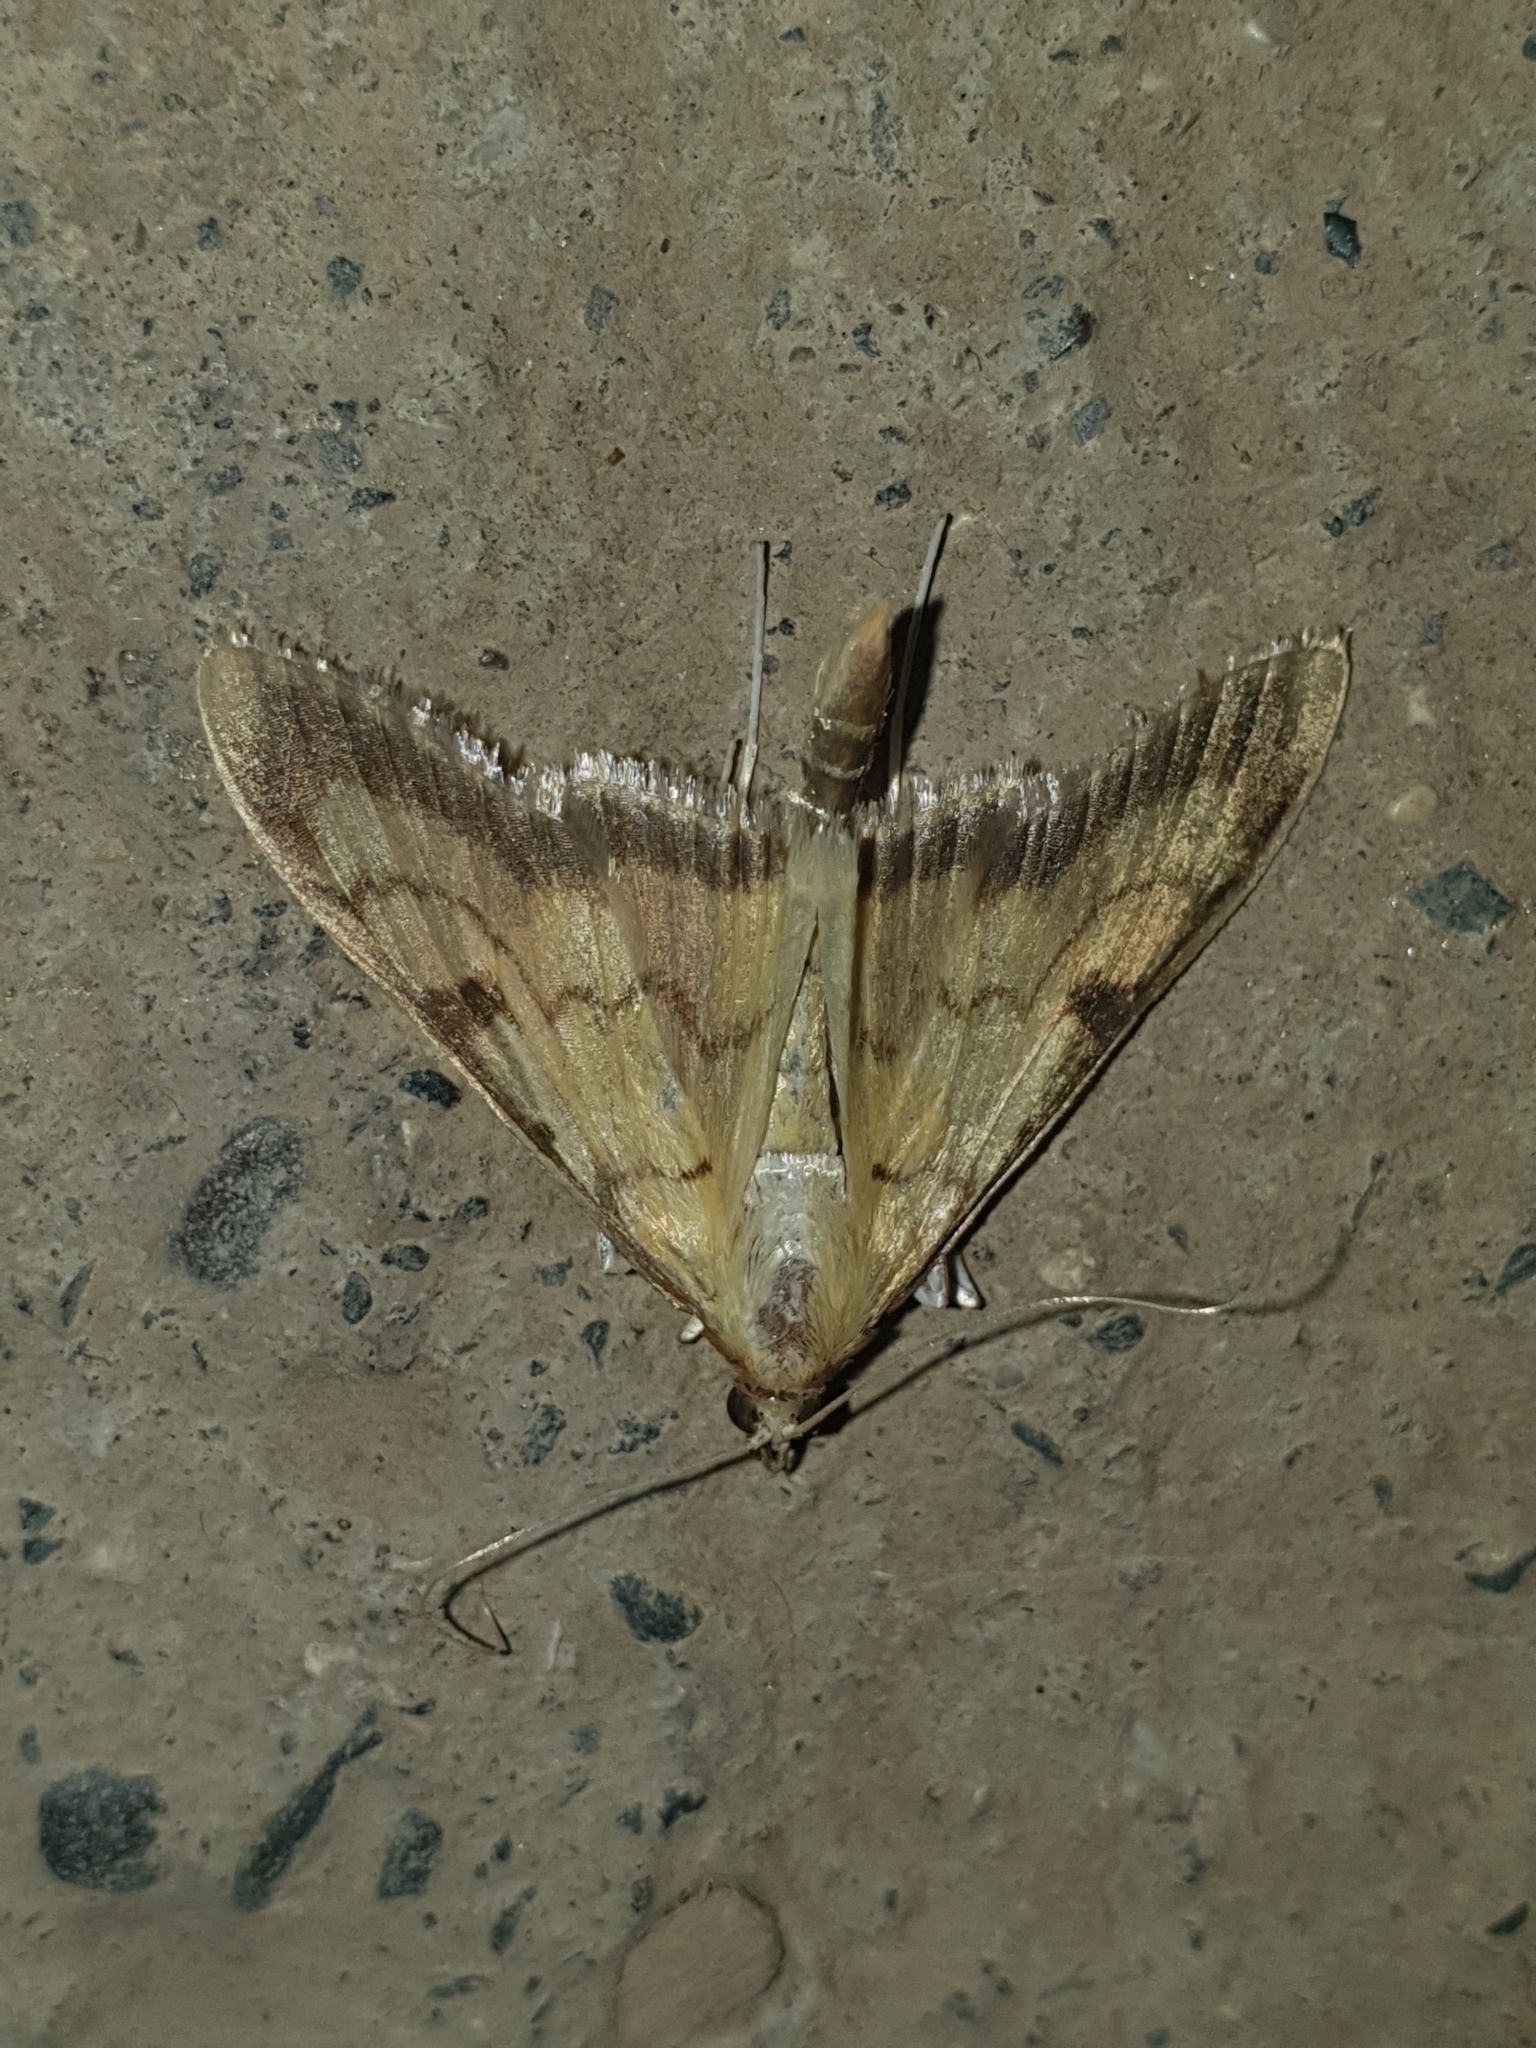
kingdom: Animalia
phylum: Arthropoda
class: Insecta
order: Lepidoptera
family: Crambidae
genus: Paratalanta
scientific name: Paratalanta ussurialis
